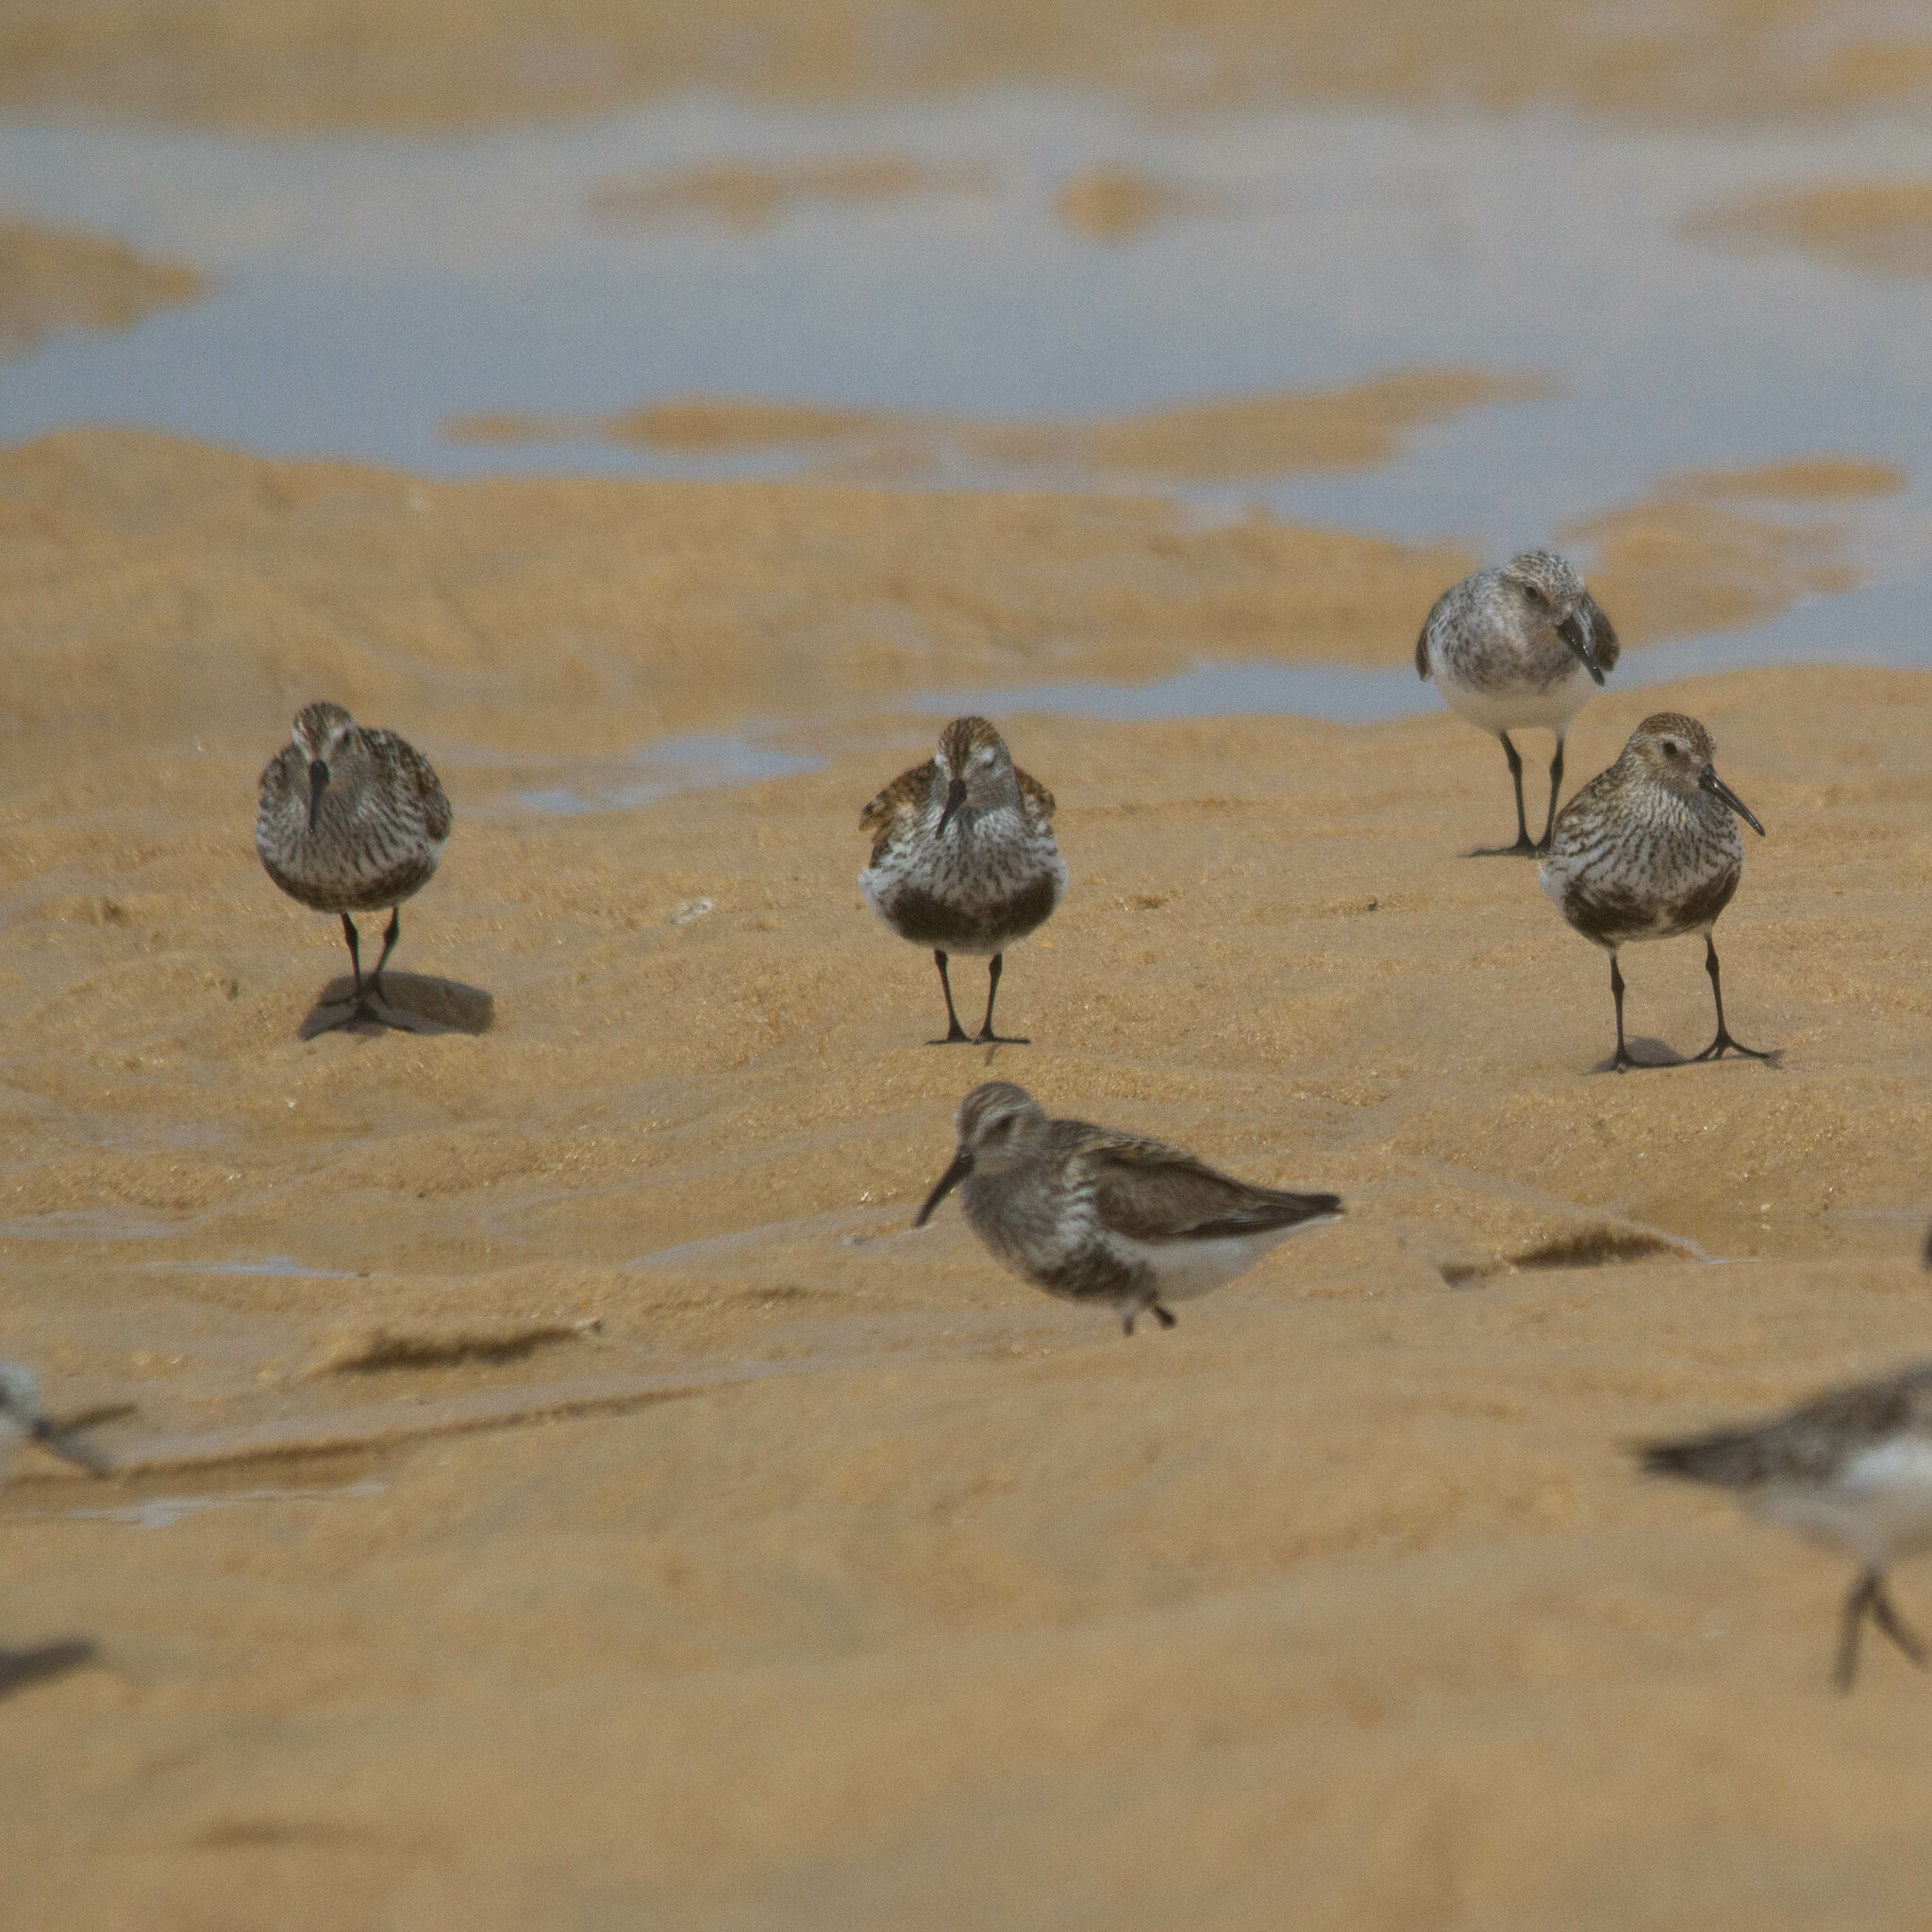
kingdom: Animalia
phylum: Chordata
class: Aves
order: Charadriiformes
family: Scolopacidae
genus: Calidris
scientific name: Calidris alpina
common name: Dunlin
